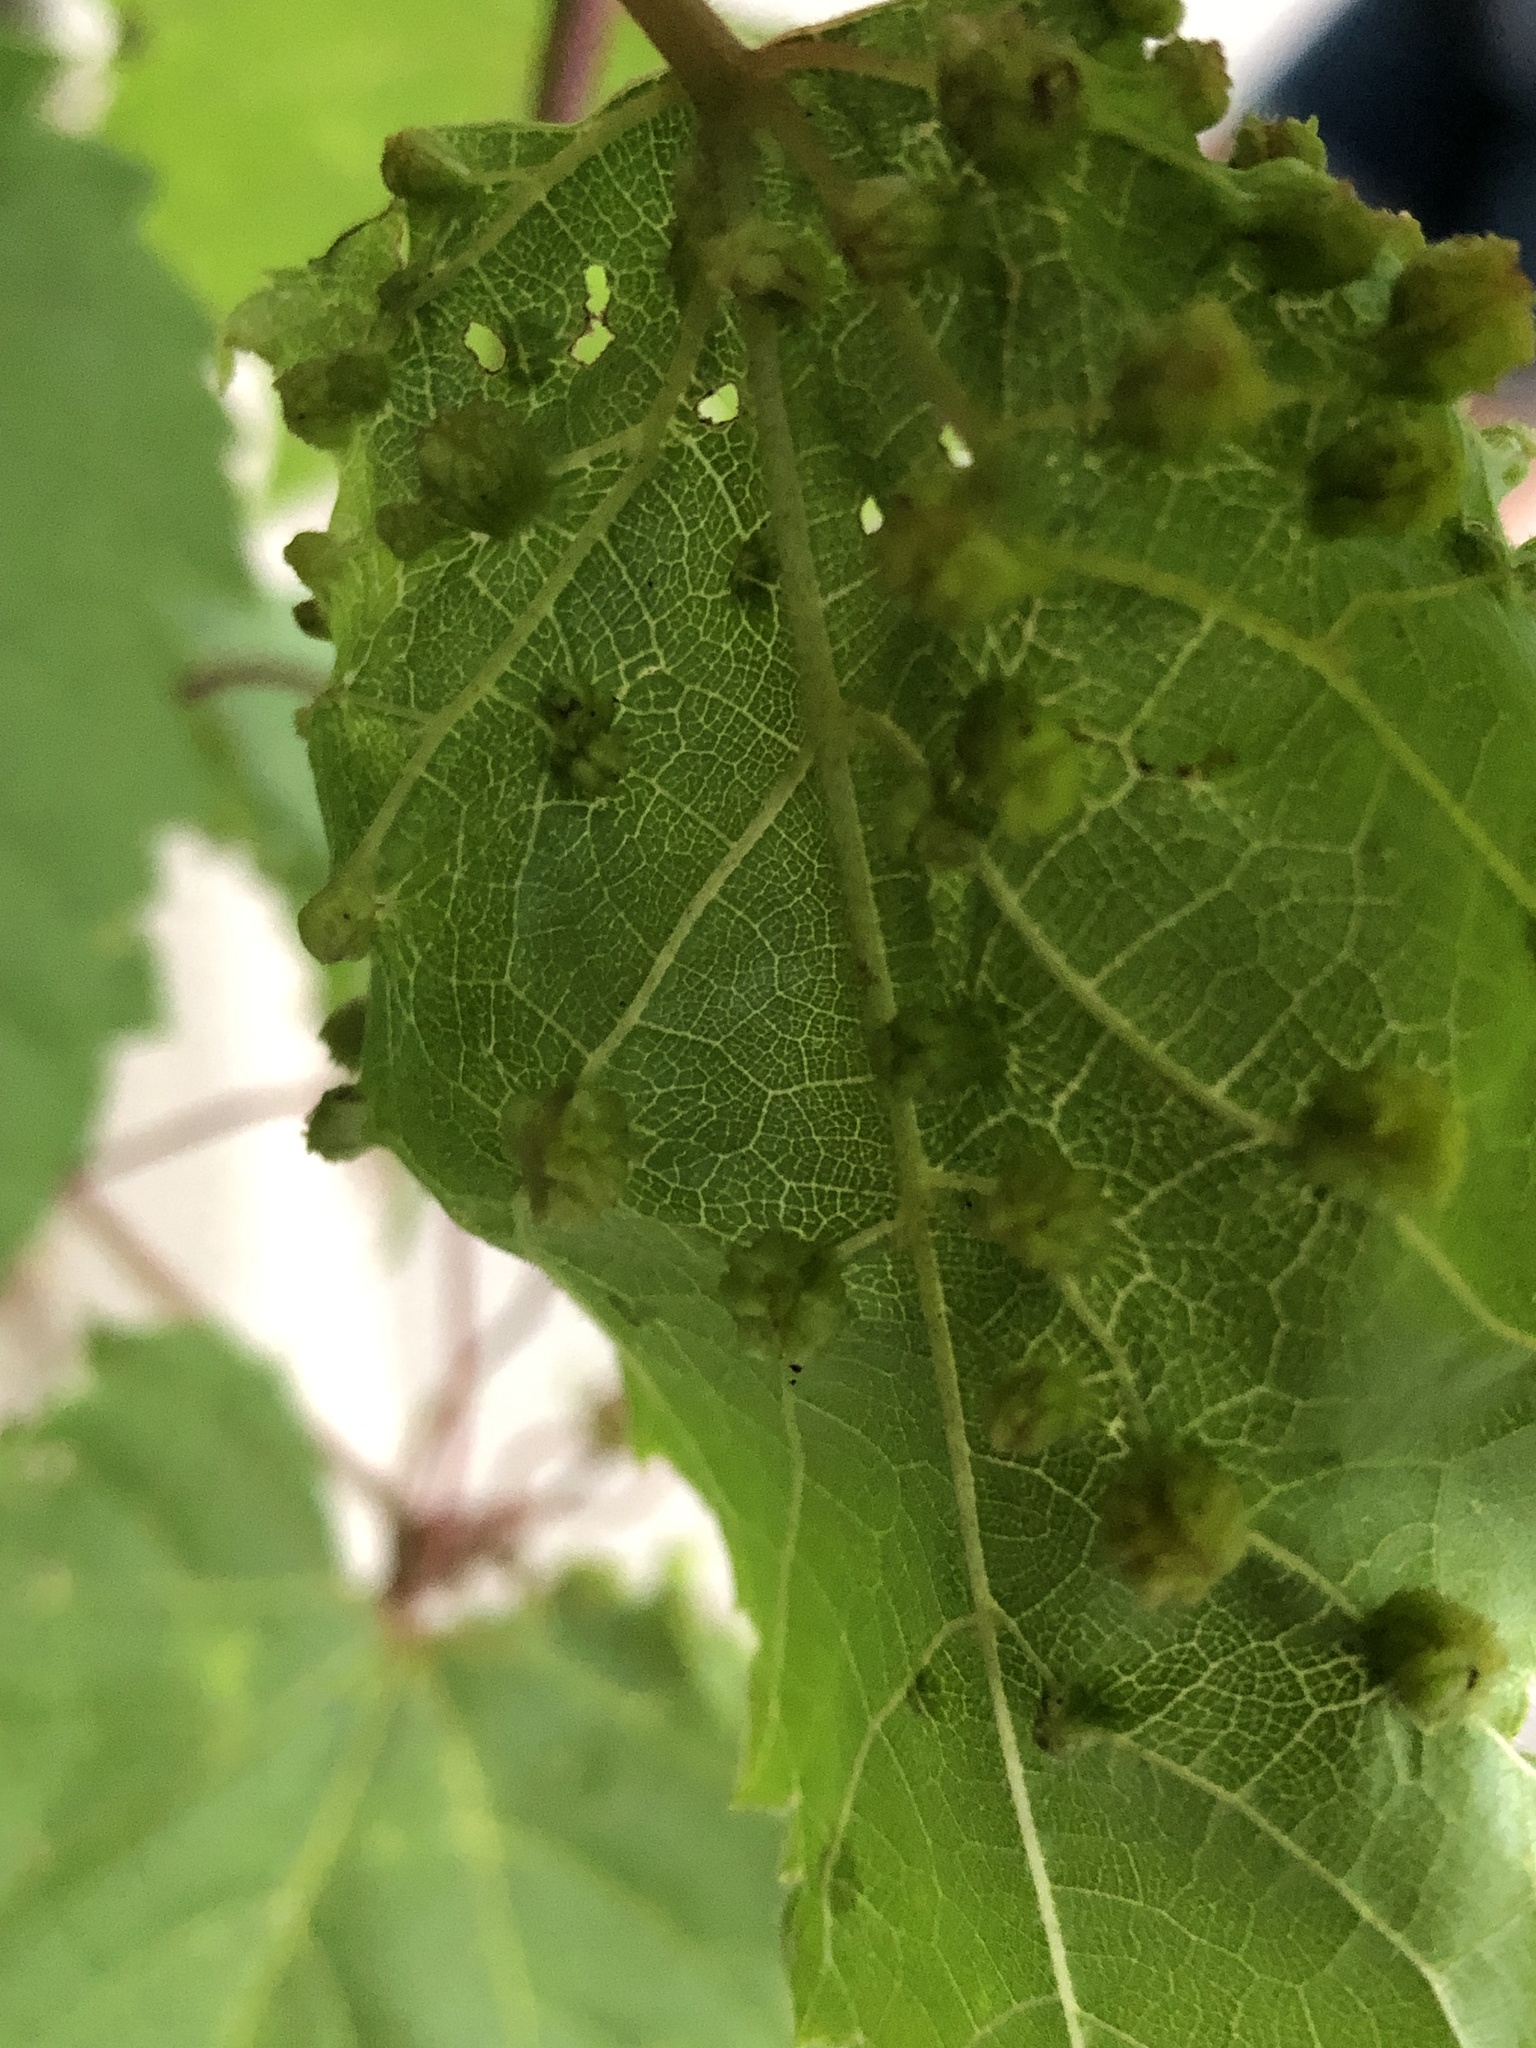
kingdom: Animalia
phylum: Arthropoda
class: Insecta
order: Hemiptera
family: Phylloxeridae
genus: Daktulosphaira
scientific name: Daktulosphaira vitifoliae
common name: Grape phylloxera
